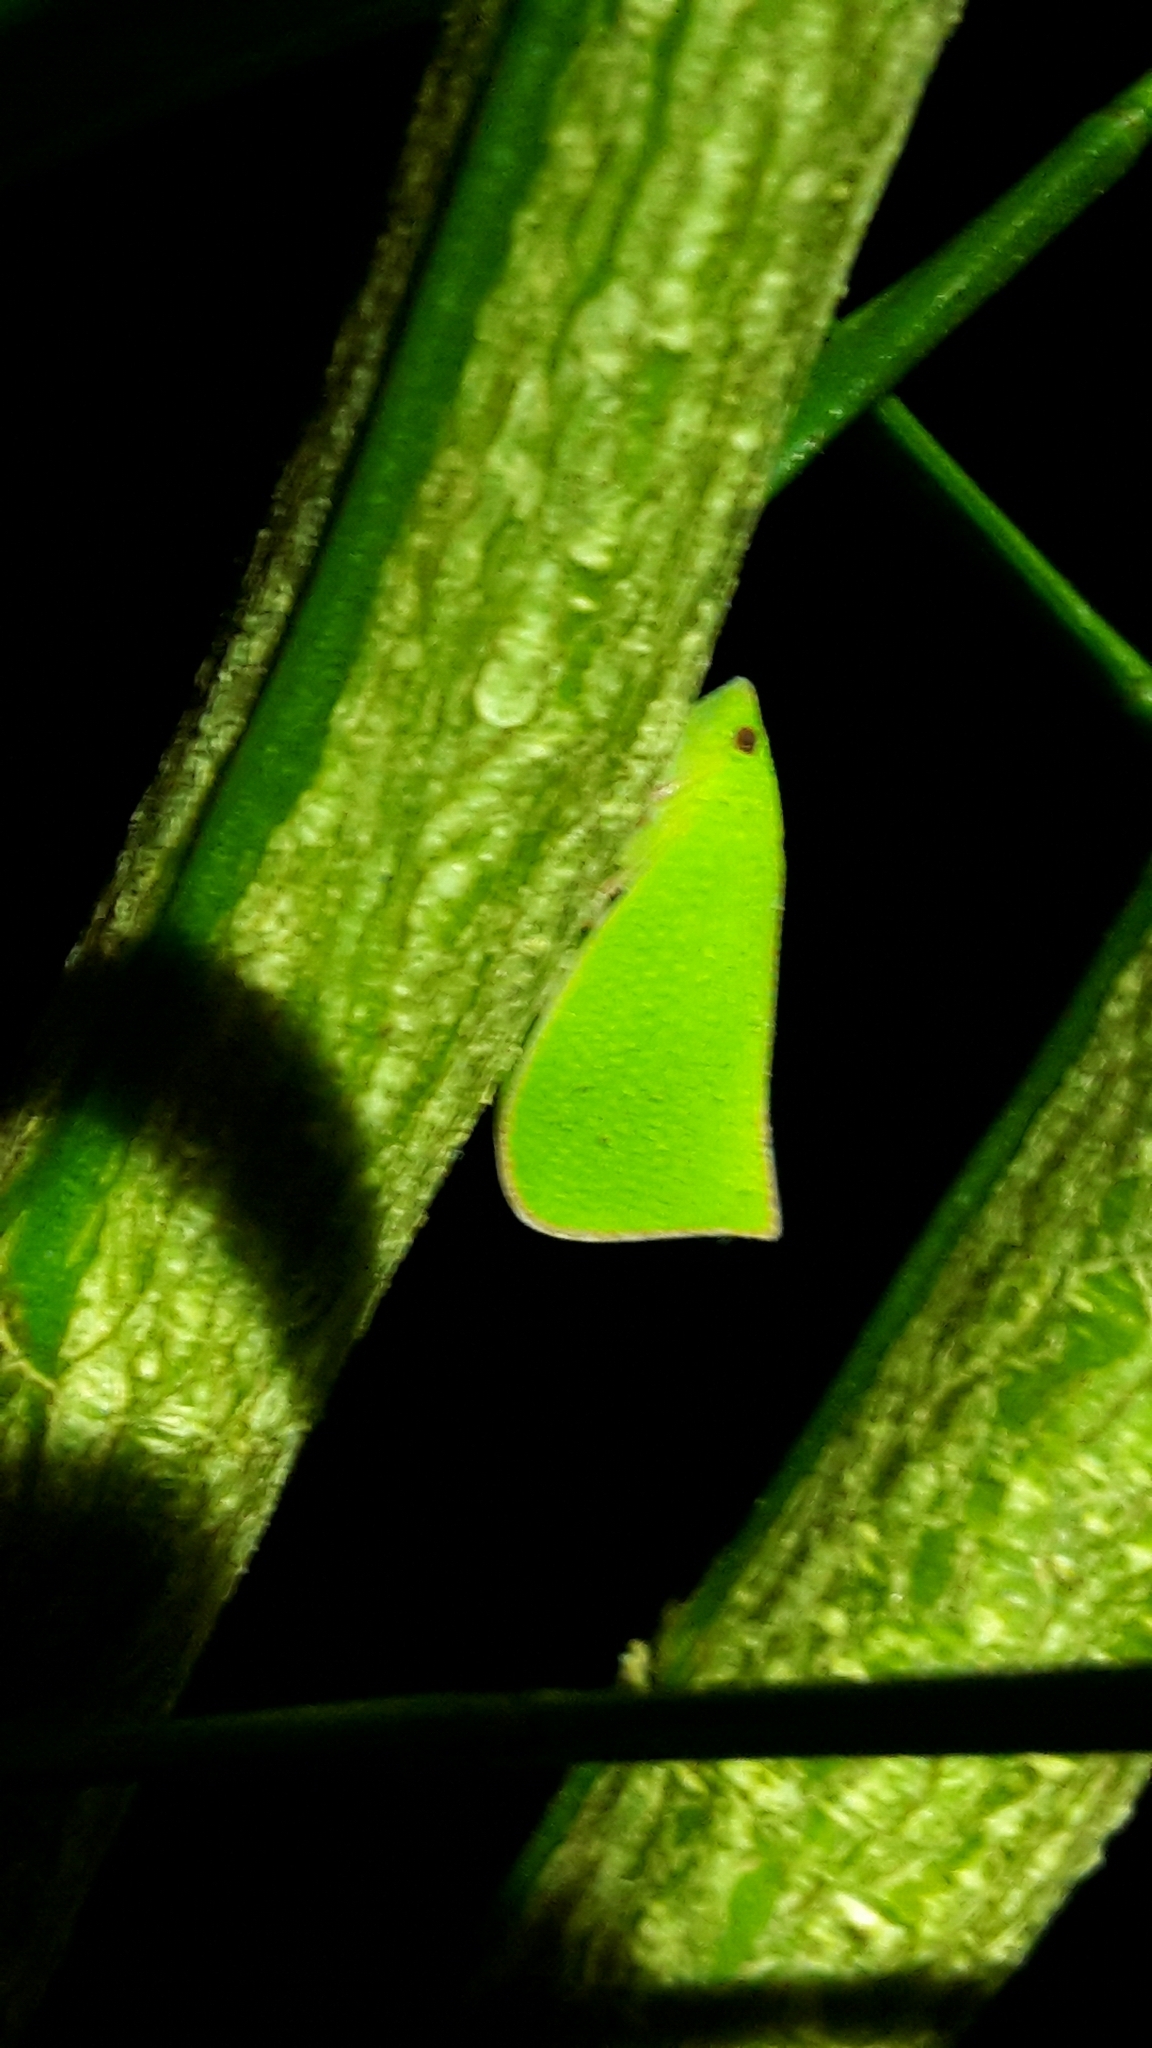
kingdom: Animalia
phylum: Arthropoda
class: Insecta
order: Hemiptera
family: Flatidae
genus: Siphanta
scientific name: Siphanta acuta
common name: Torpedo bug
